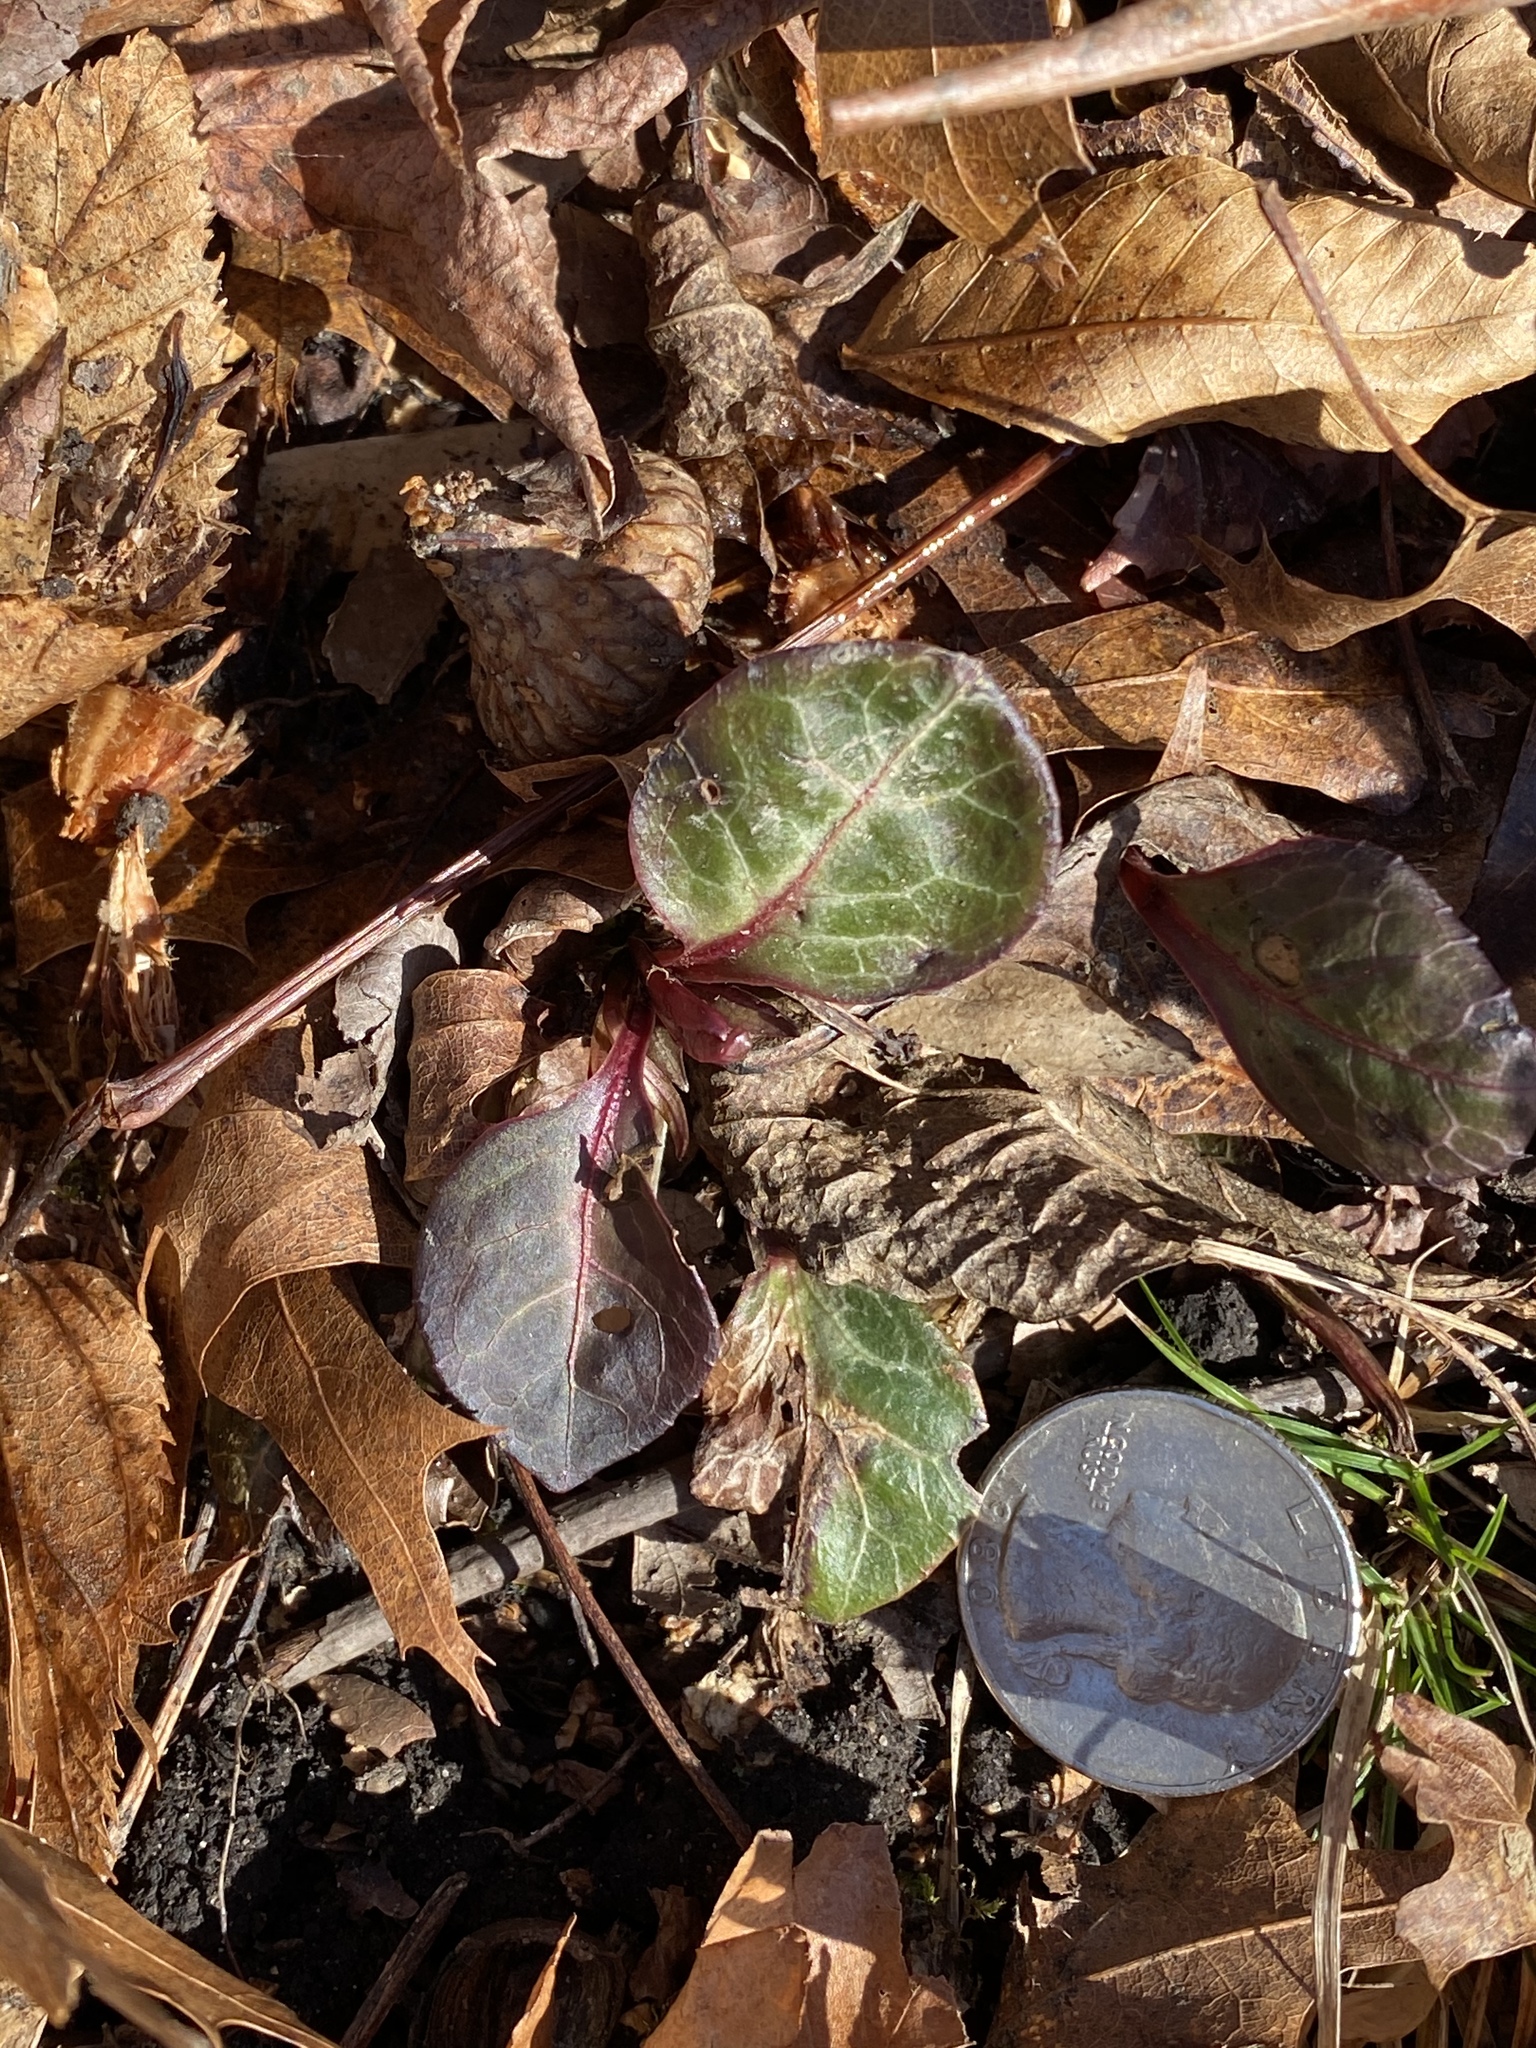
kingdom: Plantae
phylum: Tracheophyta
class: Magnoliopsida
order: Ericales
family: Ericaceae
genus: Pyrola
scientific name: Pyrola americana
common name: American wintergreen
